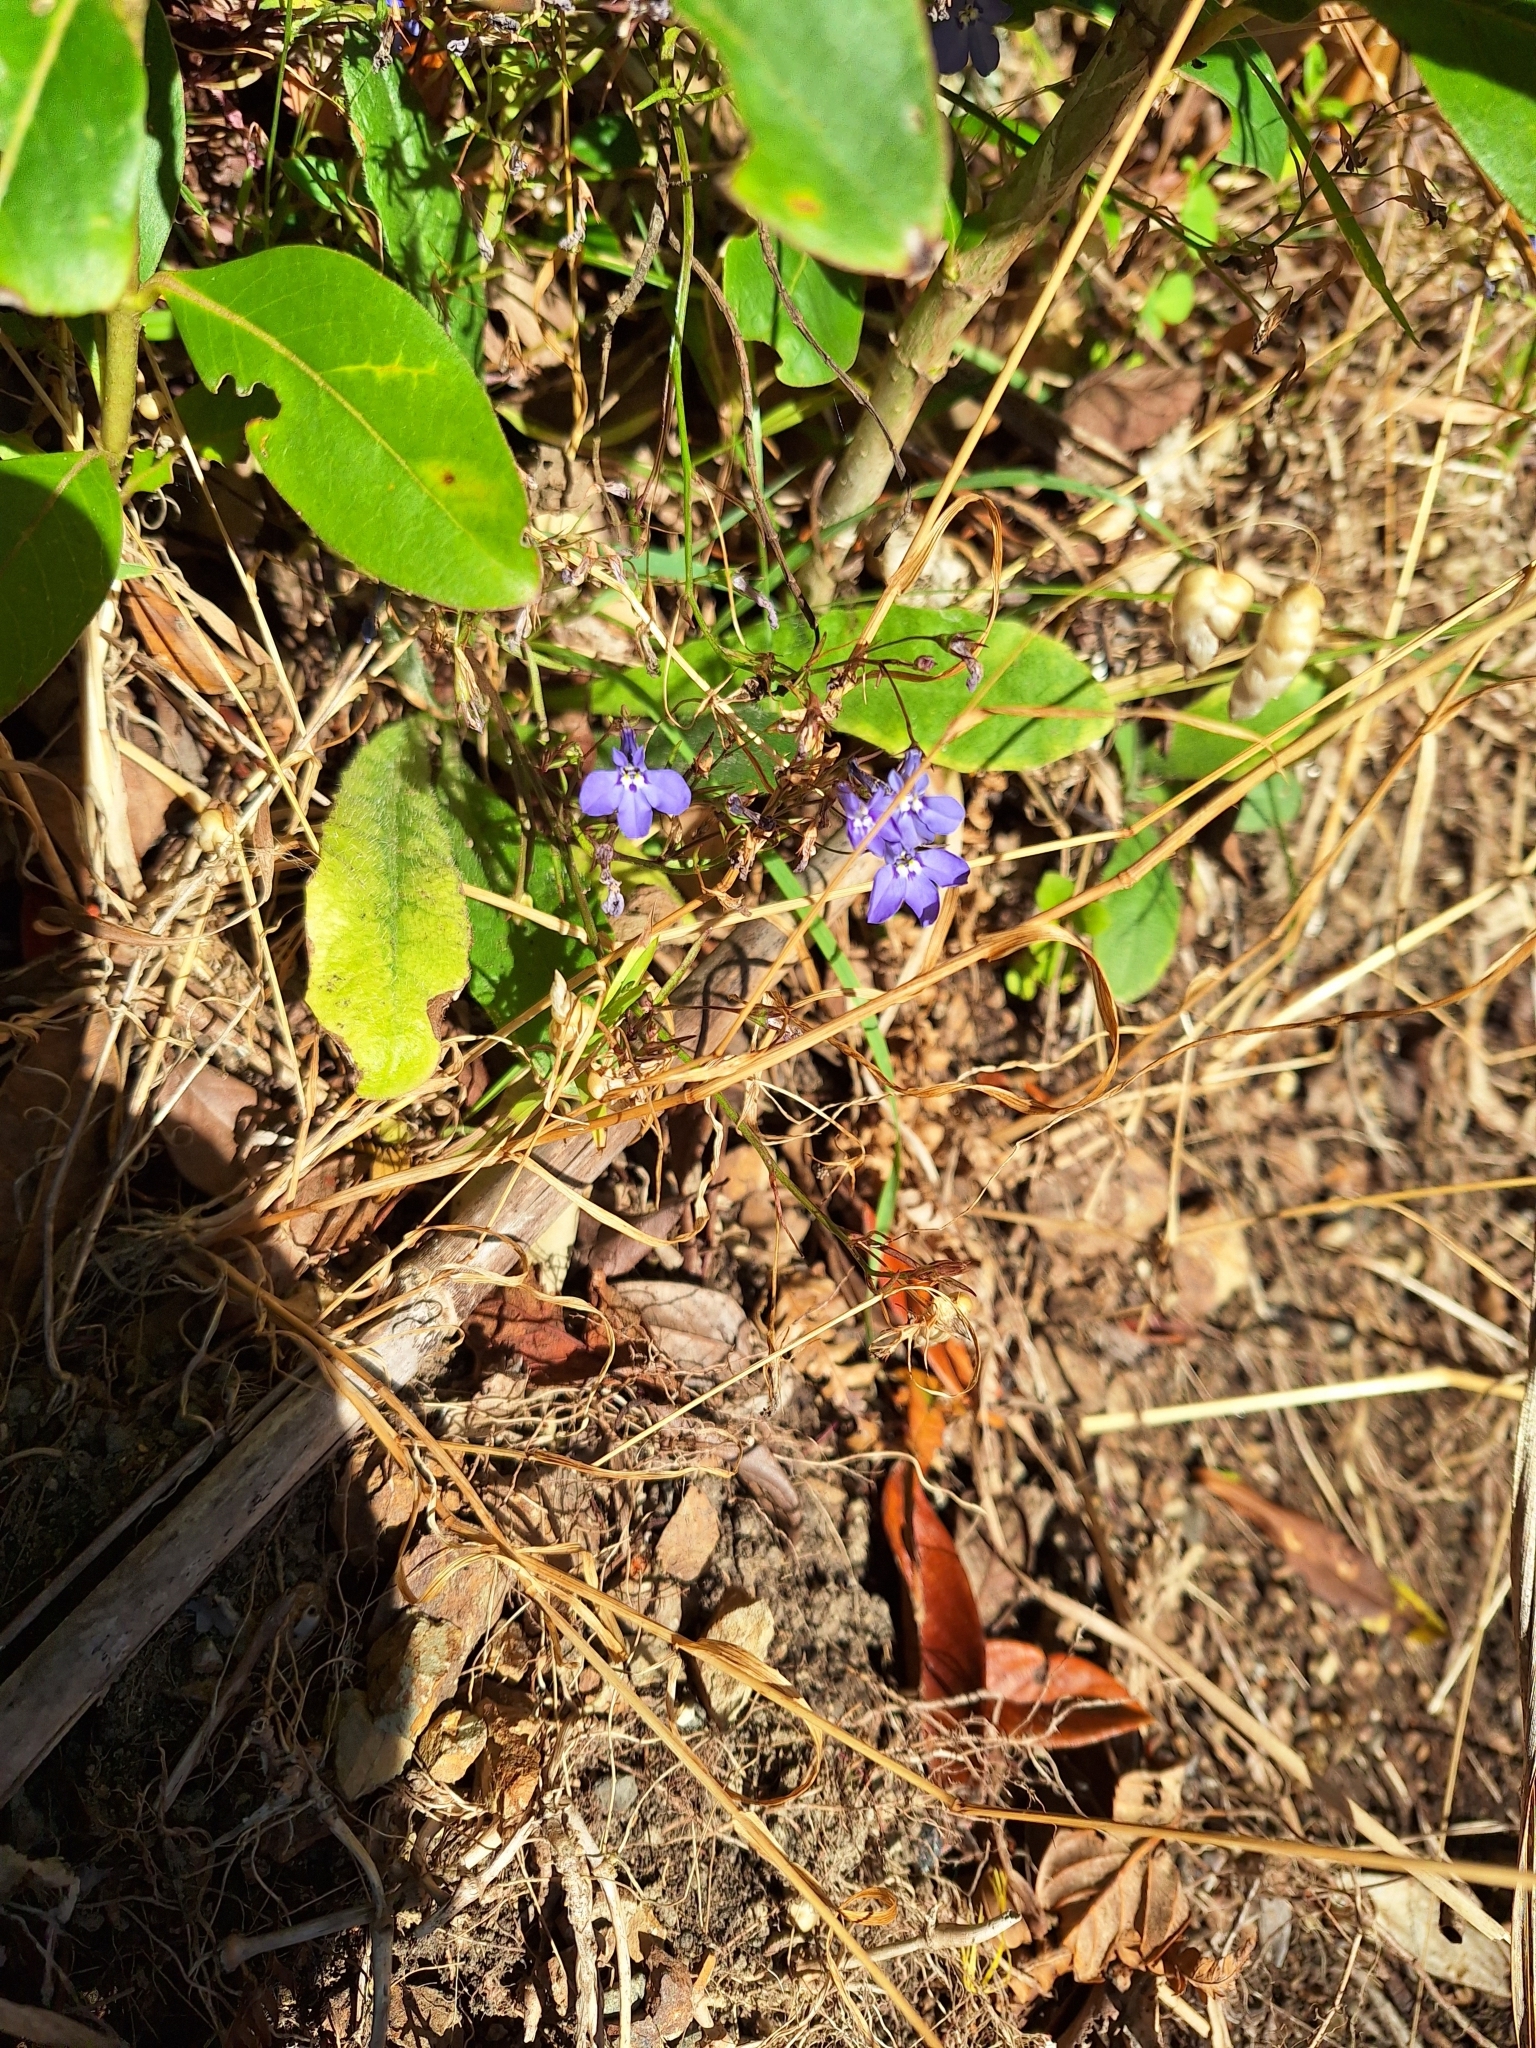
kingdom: Plantae
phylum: Tracheophyta
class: Magnoliopsida
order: Asterales
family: Campanulaceae
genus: Lobelia
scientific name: Lobelia erinus
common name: Edging lobelia
